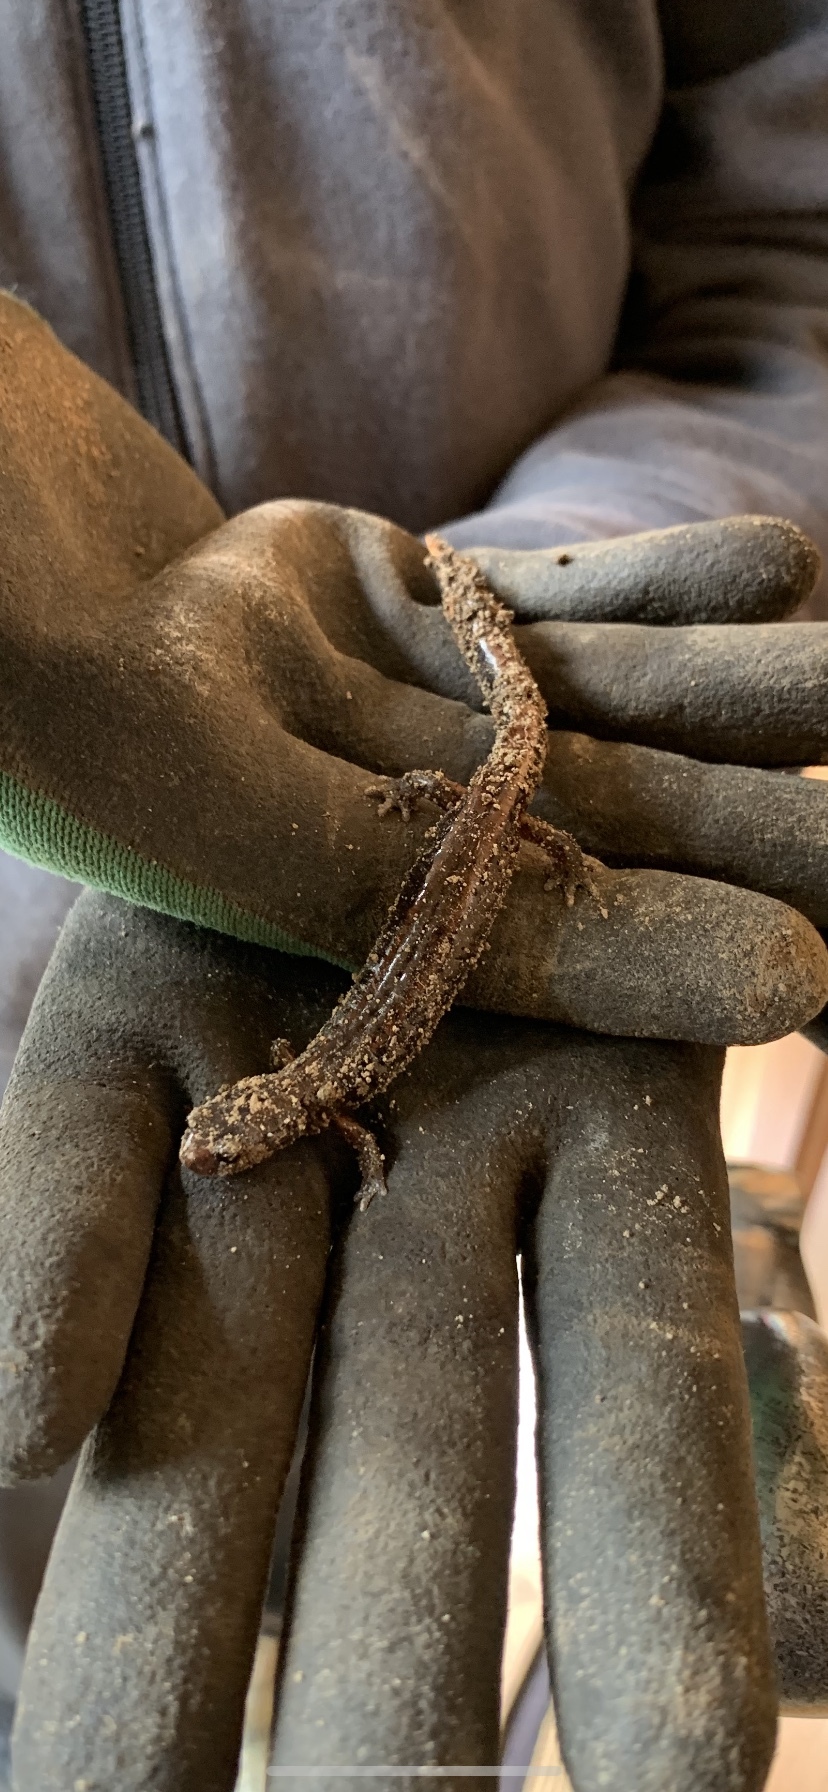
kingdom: Animalia
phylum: Chordata
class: Amphibia
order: Caudata
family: Plethodontidae
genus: Plethodon
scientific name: Plethodon vehiculum
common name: Western red-backed salamander
